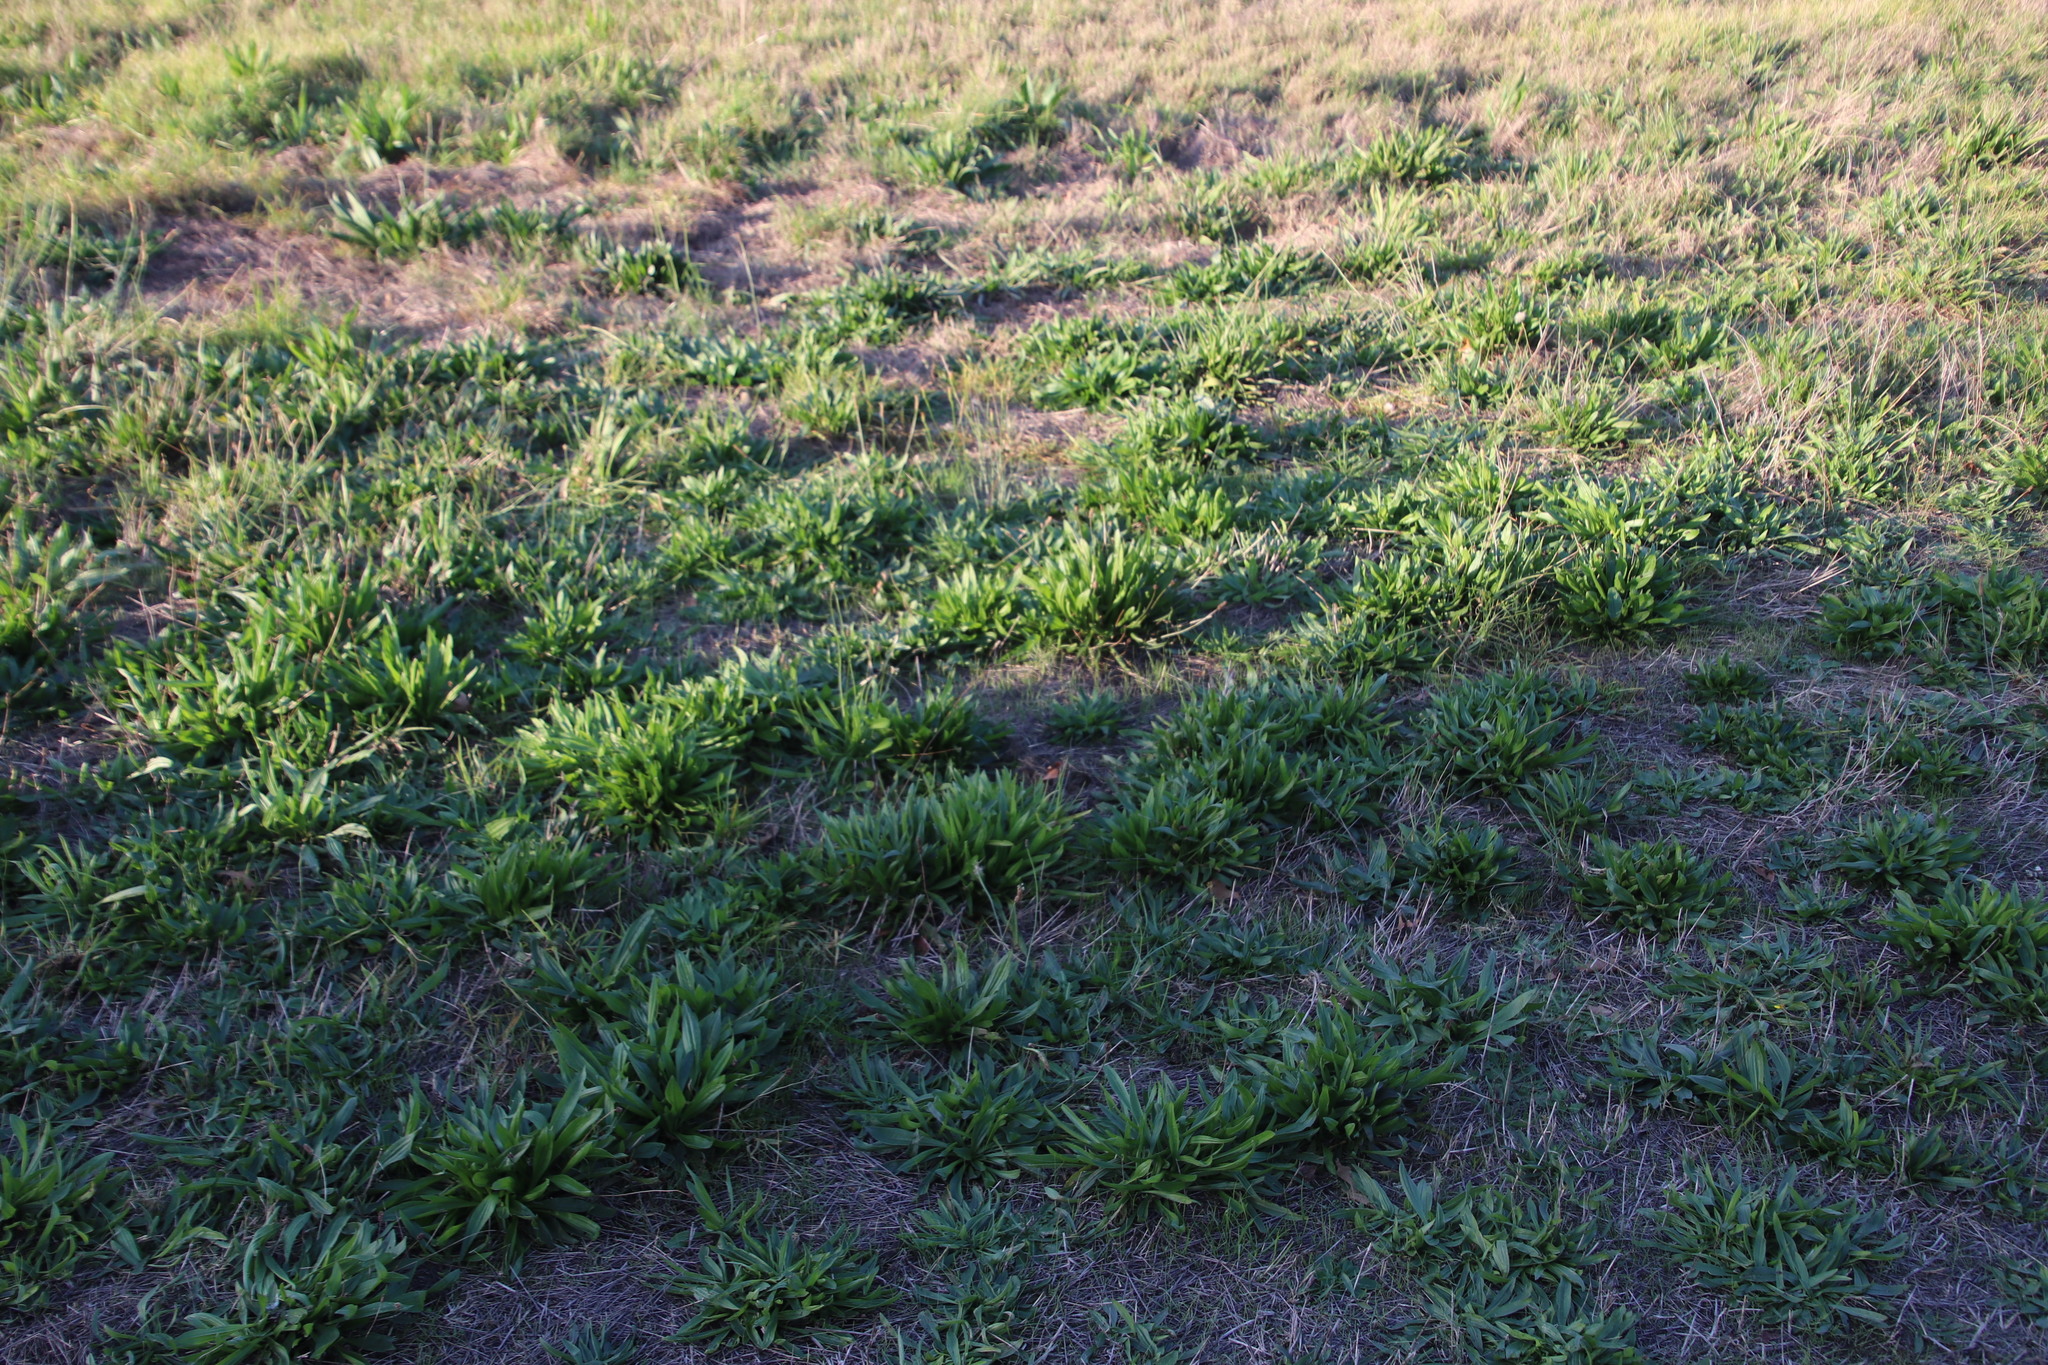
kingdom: Plantae
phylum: Tracheophyta
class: Magnoliopsida
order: Lamiales
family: Plantaginaceae
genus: Plantago
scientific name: Plantago lanceolata
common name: Ribwort plantain
